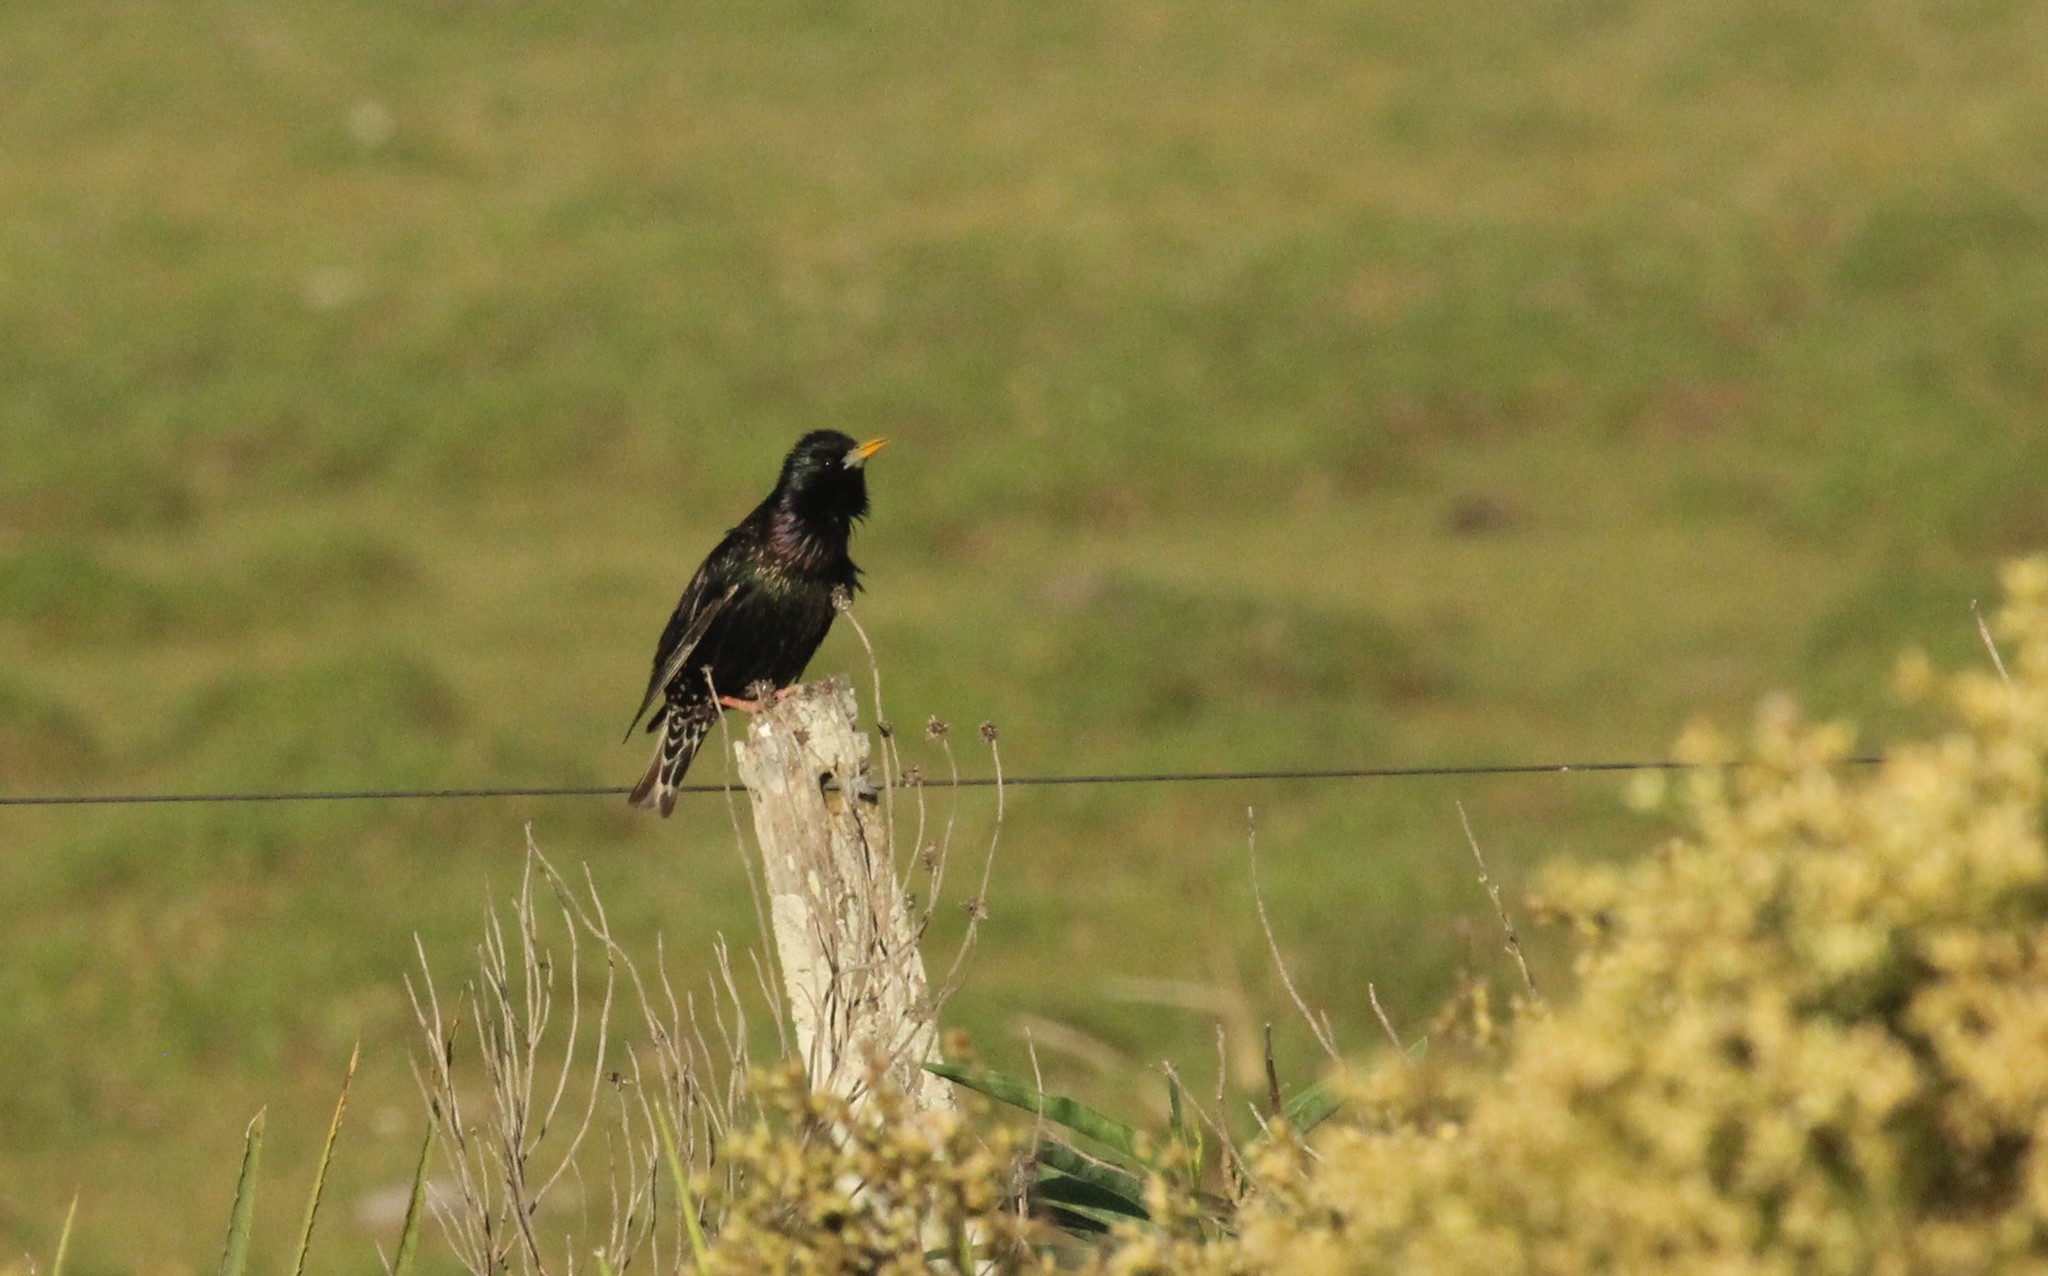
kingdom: Animalia
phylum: Chordata
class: Aves
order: Passeriformes
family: Sturnidae
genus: Sturnus
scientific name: Sturnus vulgaris
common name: Common starling
